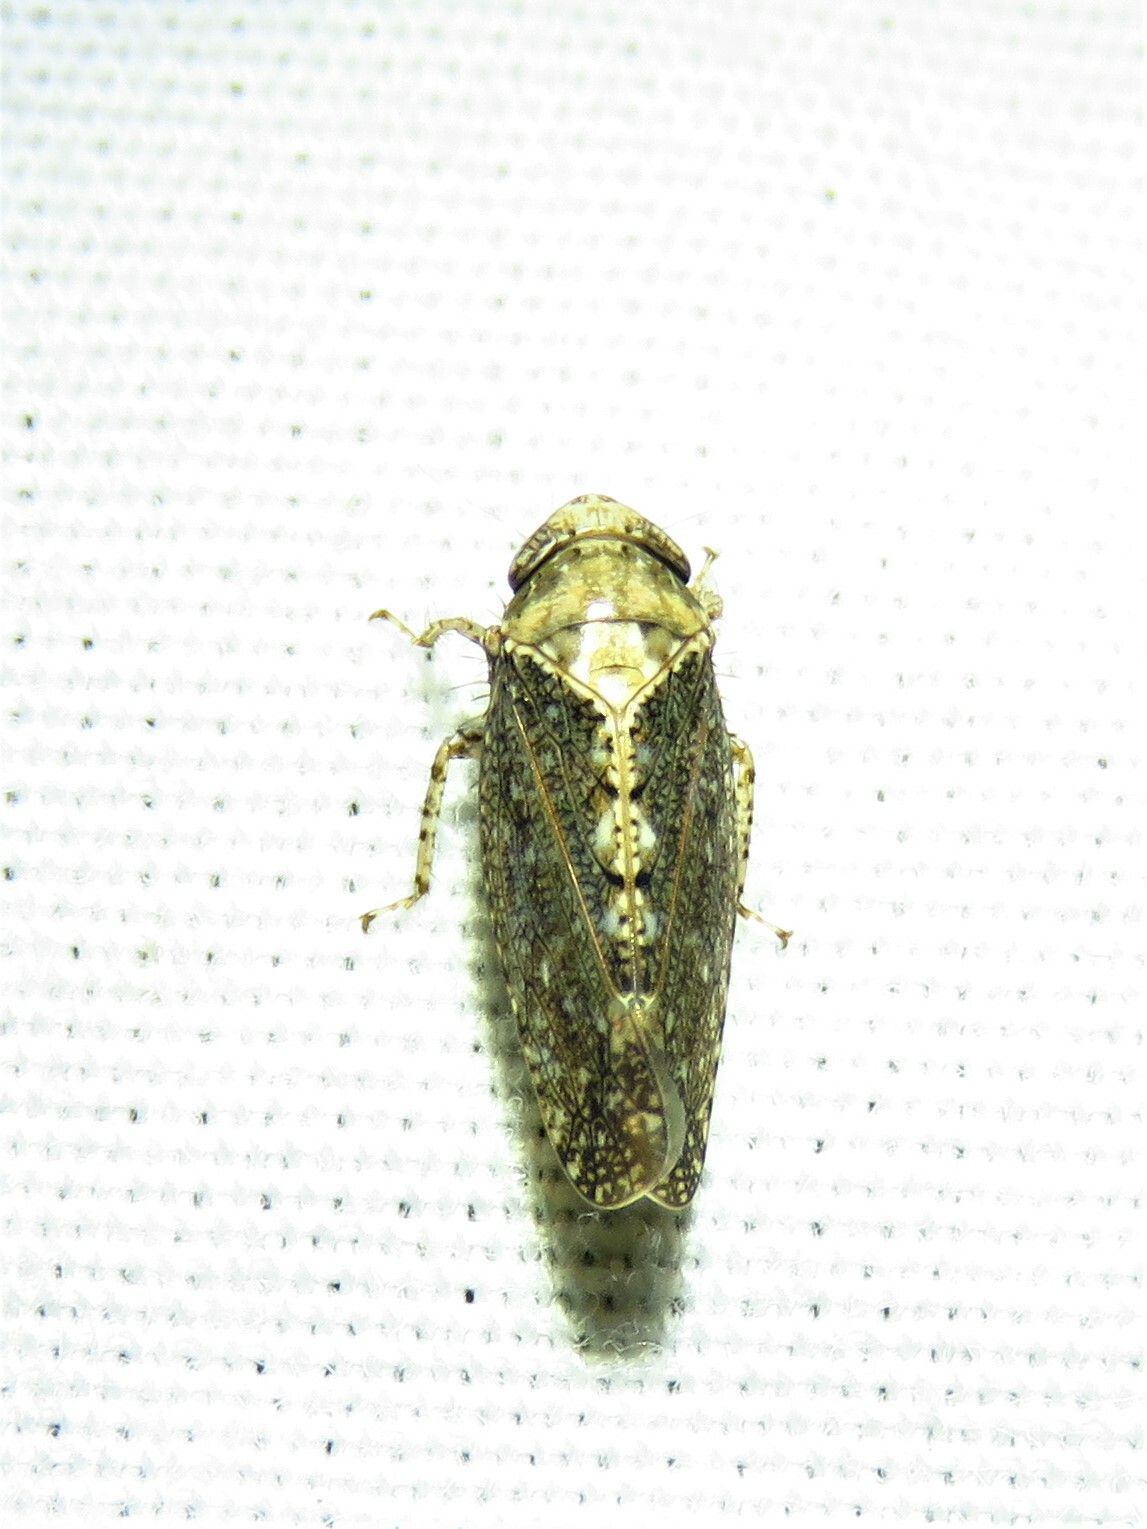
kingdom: Animalia
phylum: Arthropoda
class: Insecta
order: Hemiptera
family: Cicadellidae
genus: Excultanus
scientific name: Excultanus excultus
